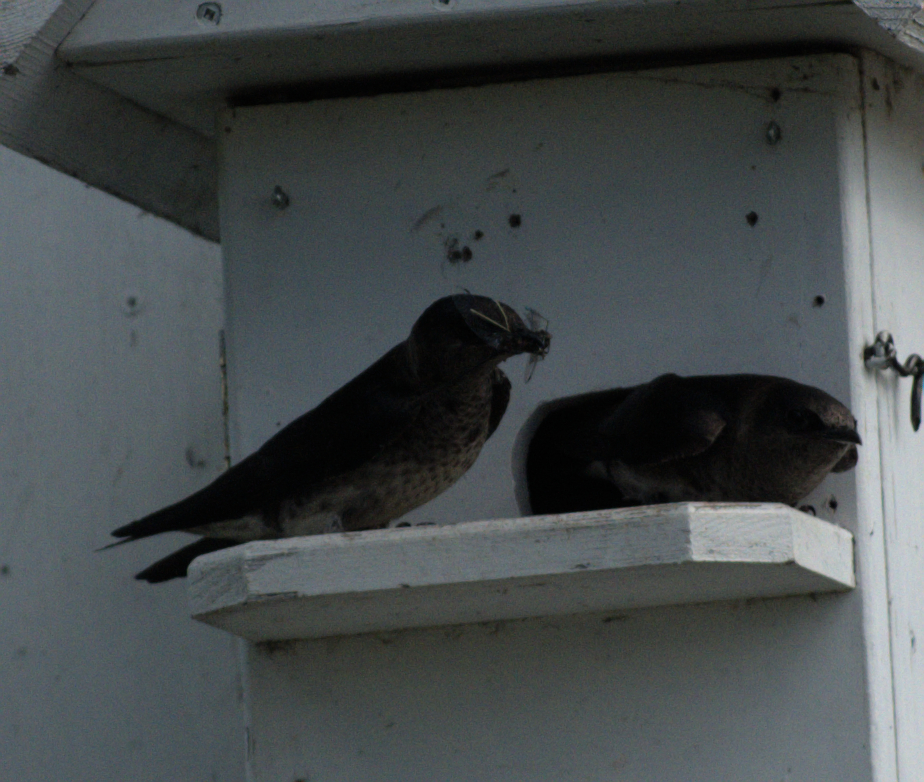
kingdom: Animalia
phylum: Chordata
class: Aves
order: Passeriformes
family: Hirundinidae
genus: Progne
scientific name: Progne subis
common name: Purple martin
